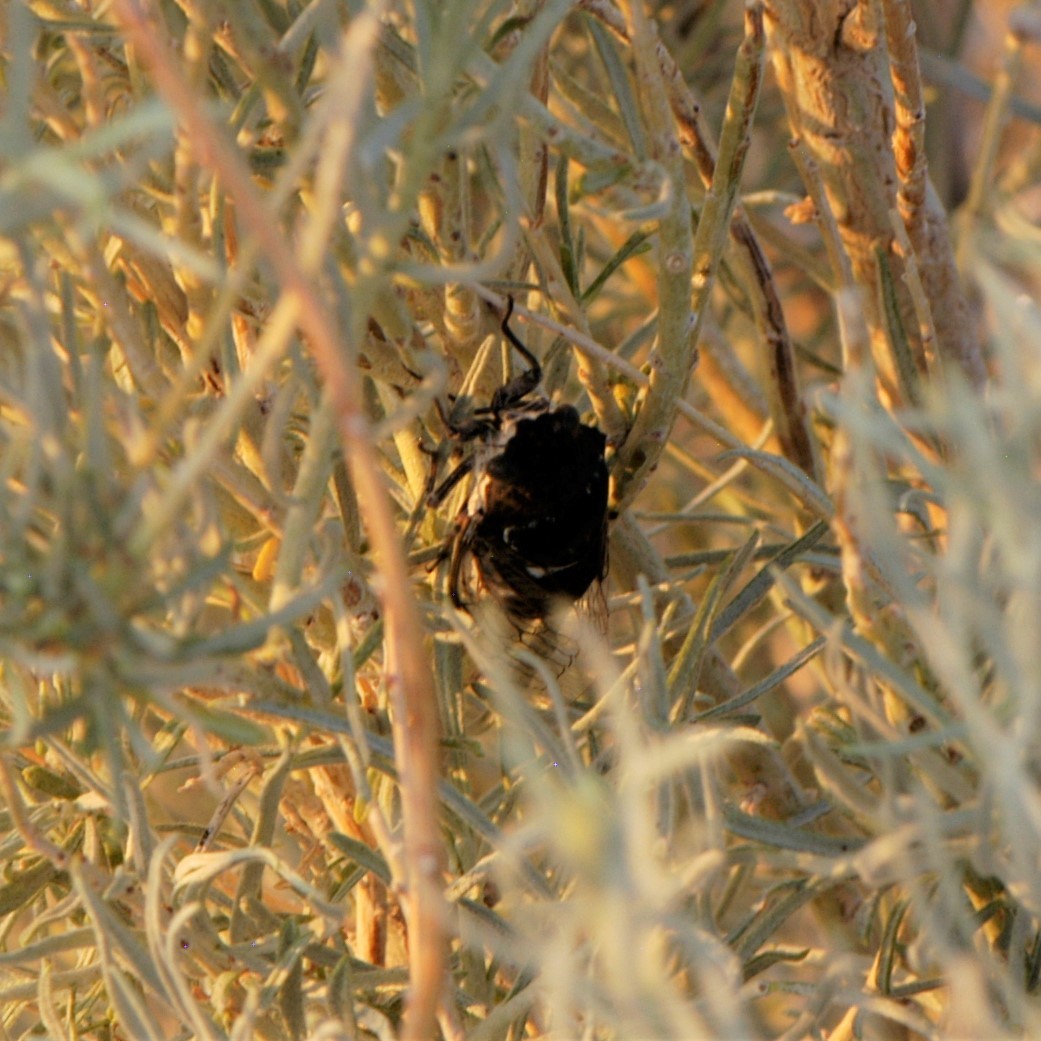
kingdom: Animalia
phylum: Arthropoda
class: Insecta
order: Hemiptera
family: Cicadidae
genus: Cacama
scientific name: Cacama valvata
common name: Cactus dodger
